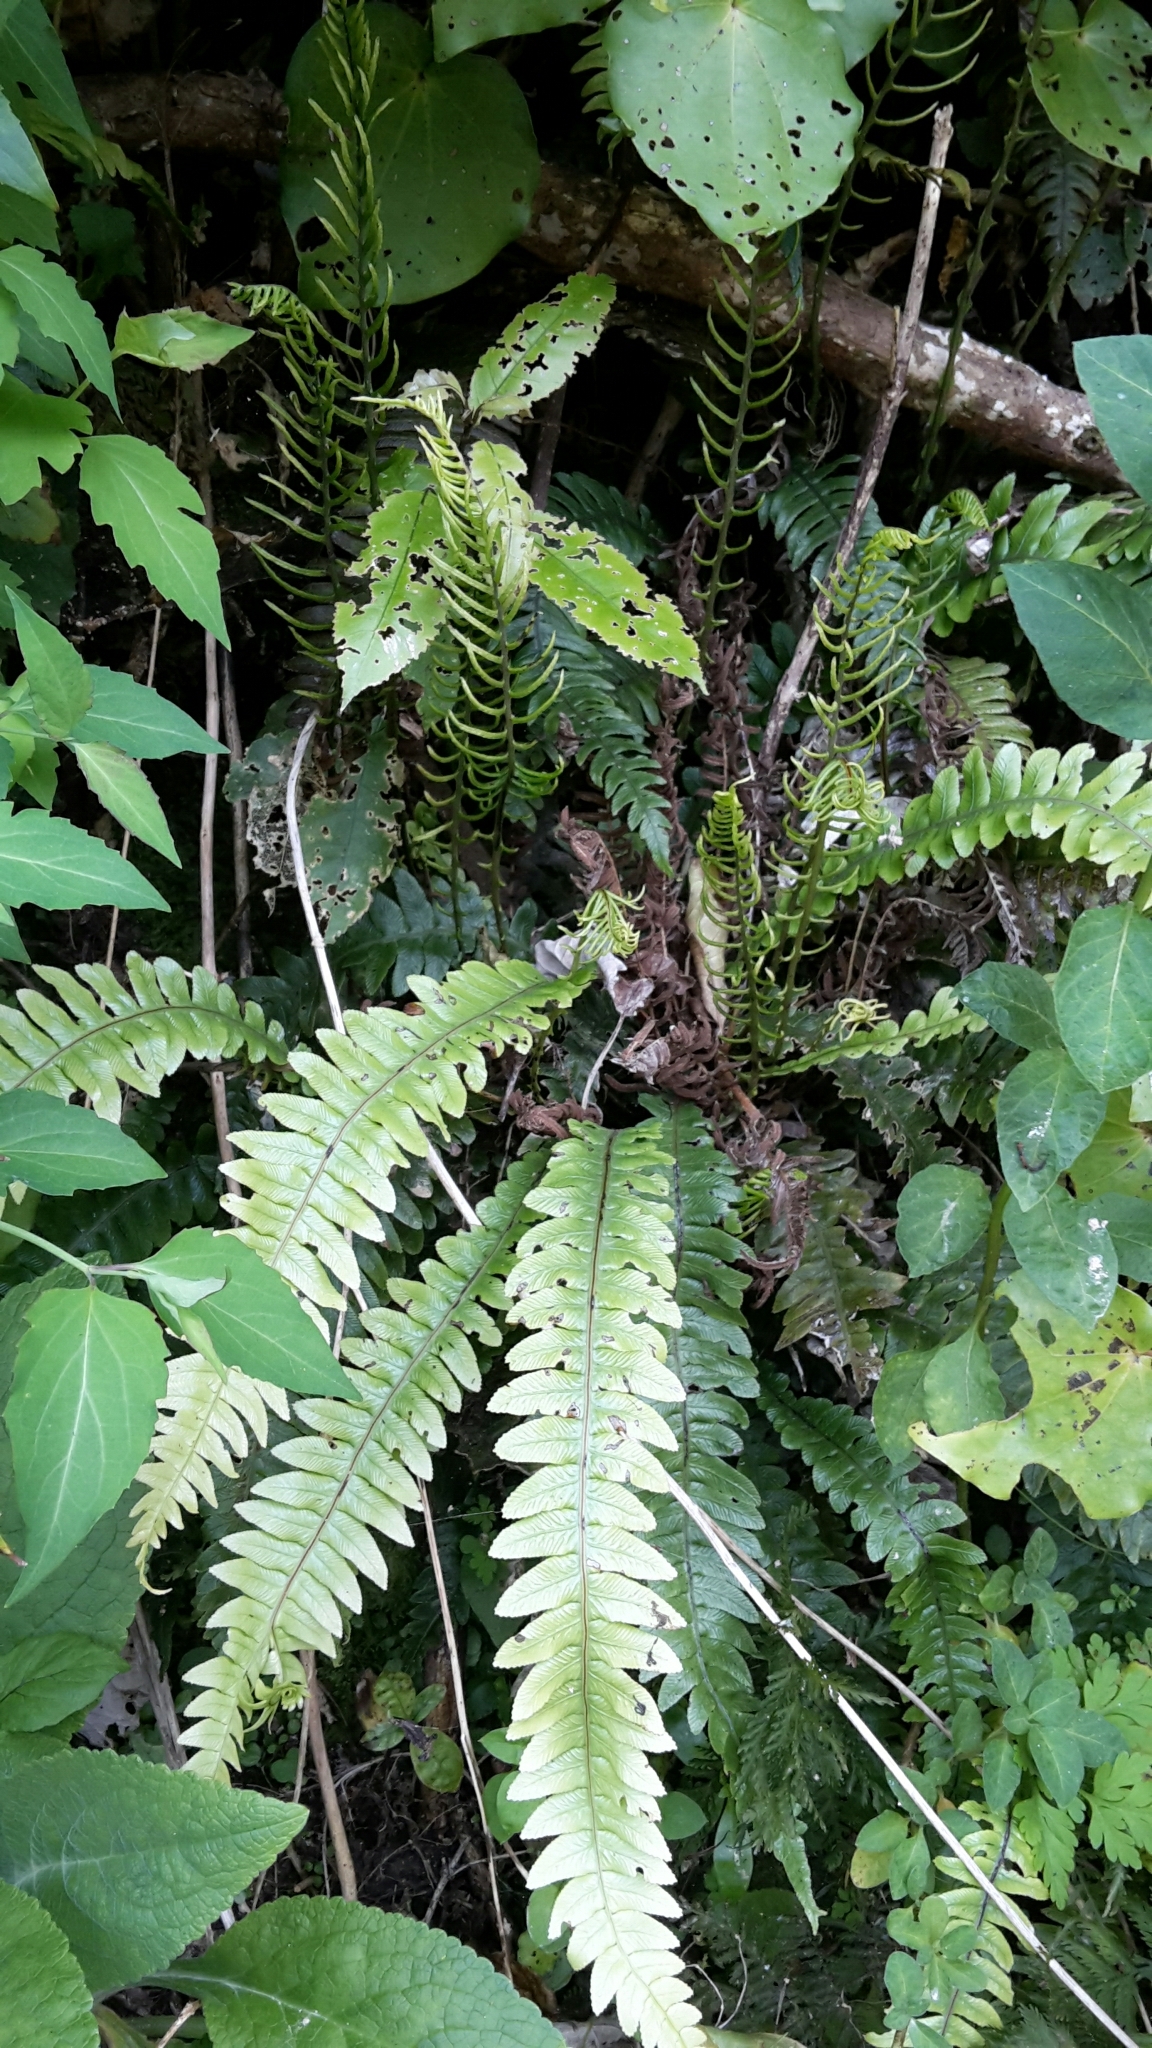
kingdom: Plantae
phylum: Tracheophyta
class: Polypodiopsida
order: Polypodiales
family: Blechnaceae
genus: Austroblechnum
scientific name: Austroblechnum lanceolatum
